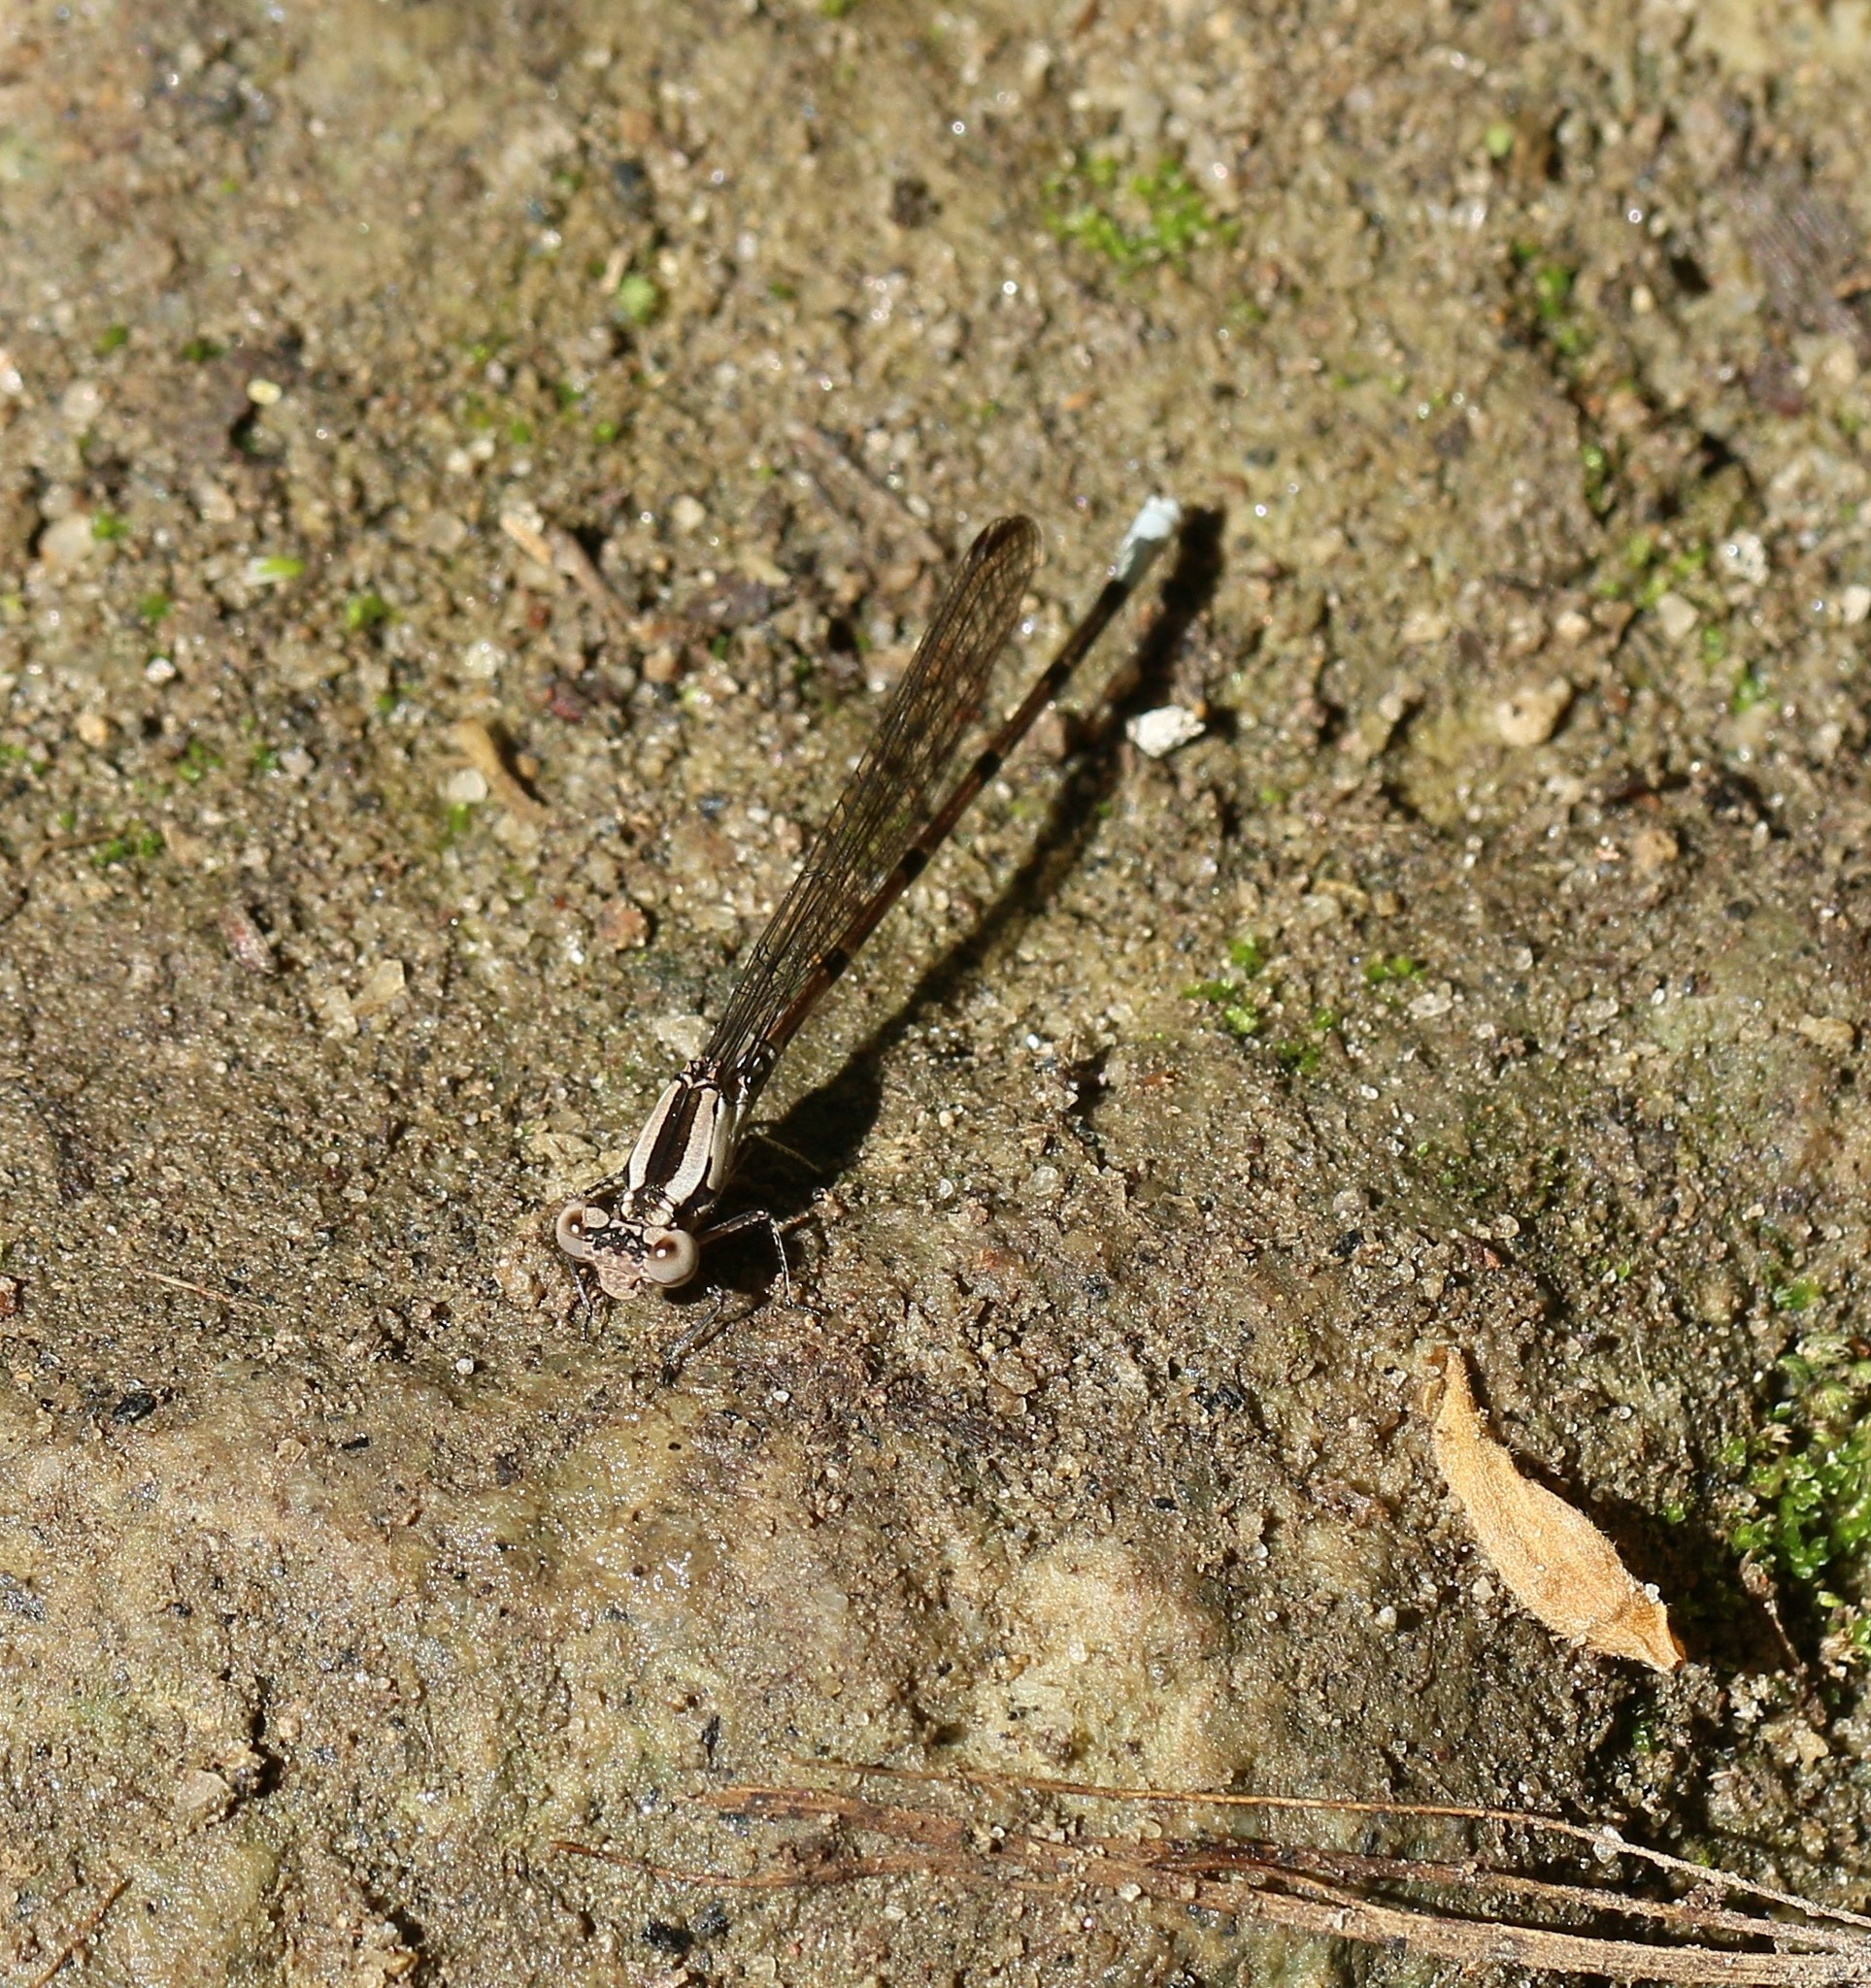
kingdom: Animalia
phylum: Arthropoda
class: Insecta
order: Odonata
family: Coenagrionidae
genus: Argia
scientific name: Argia elongata
